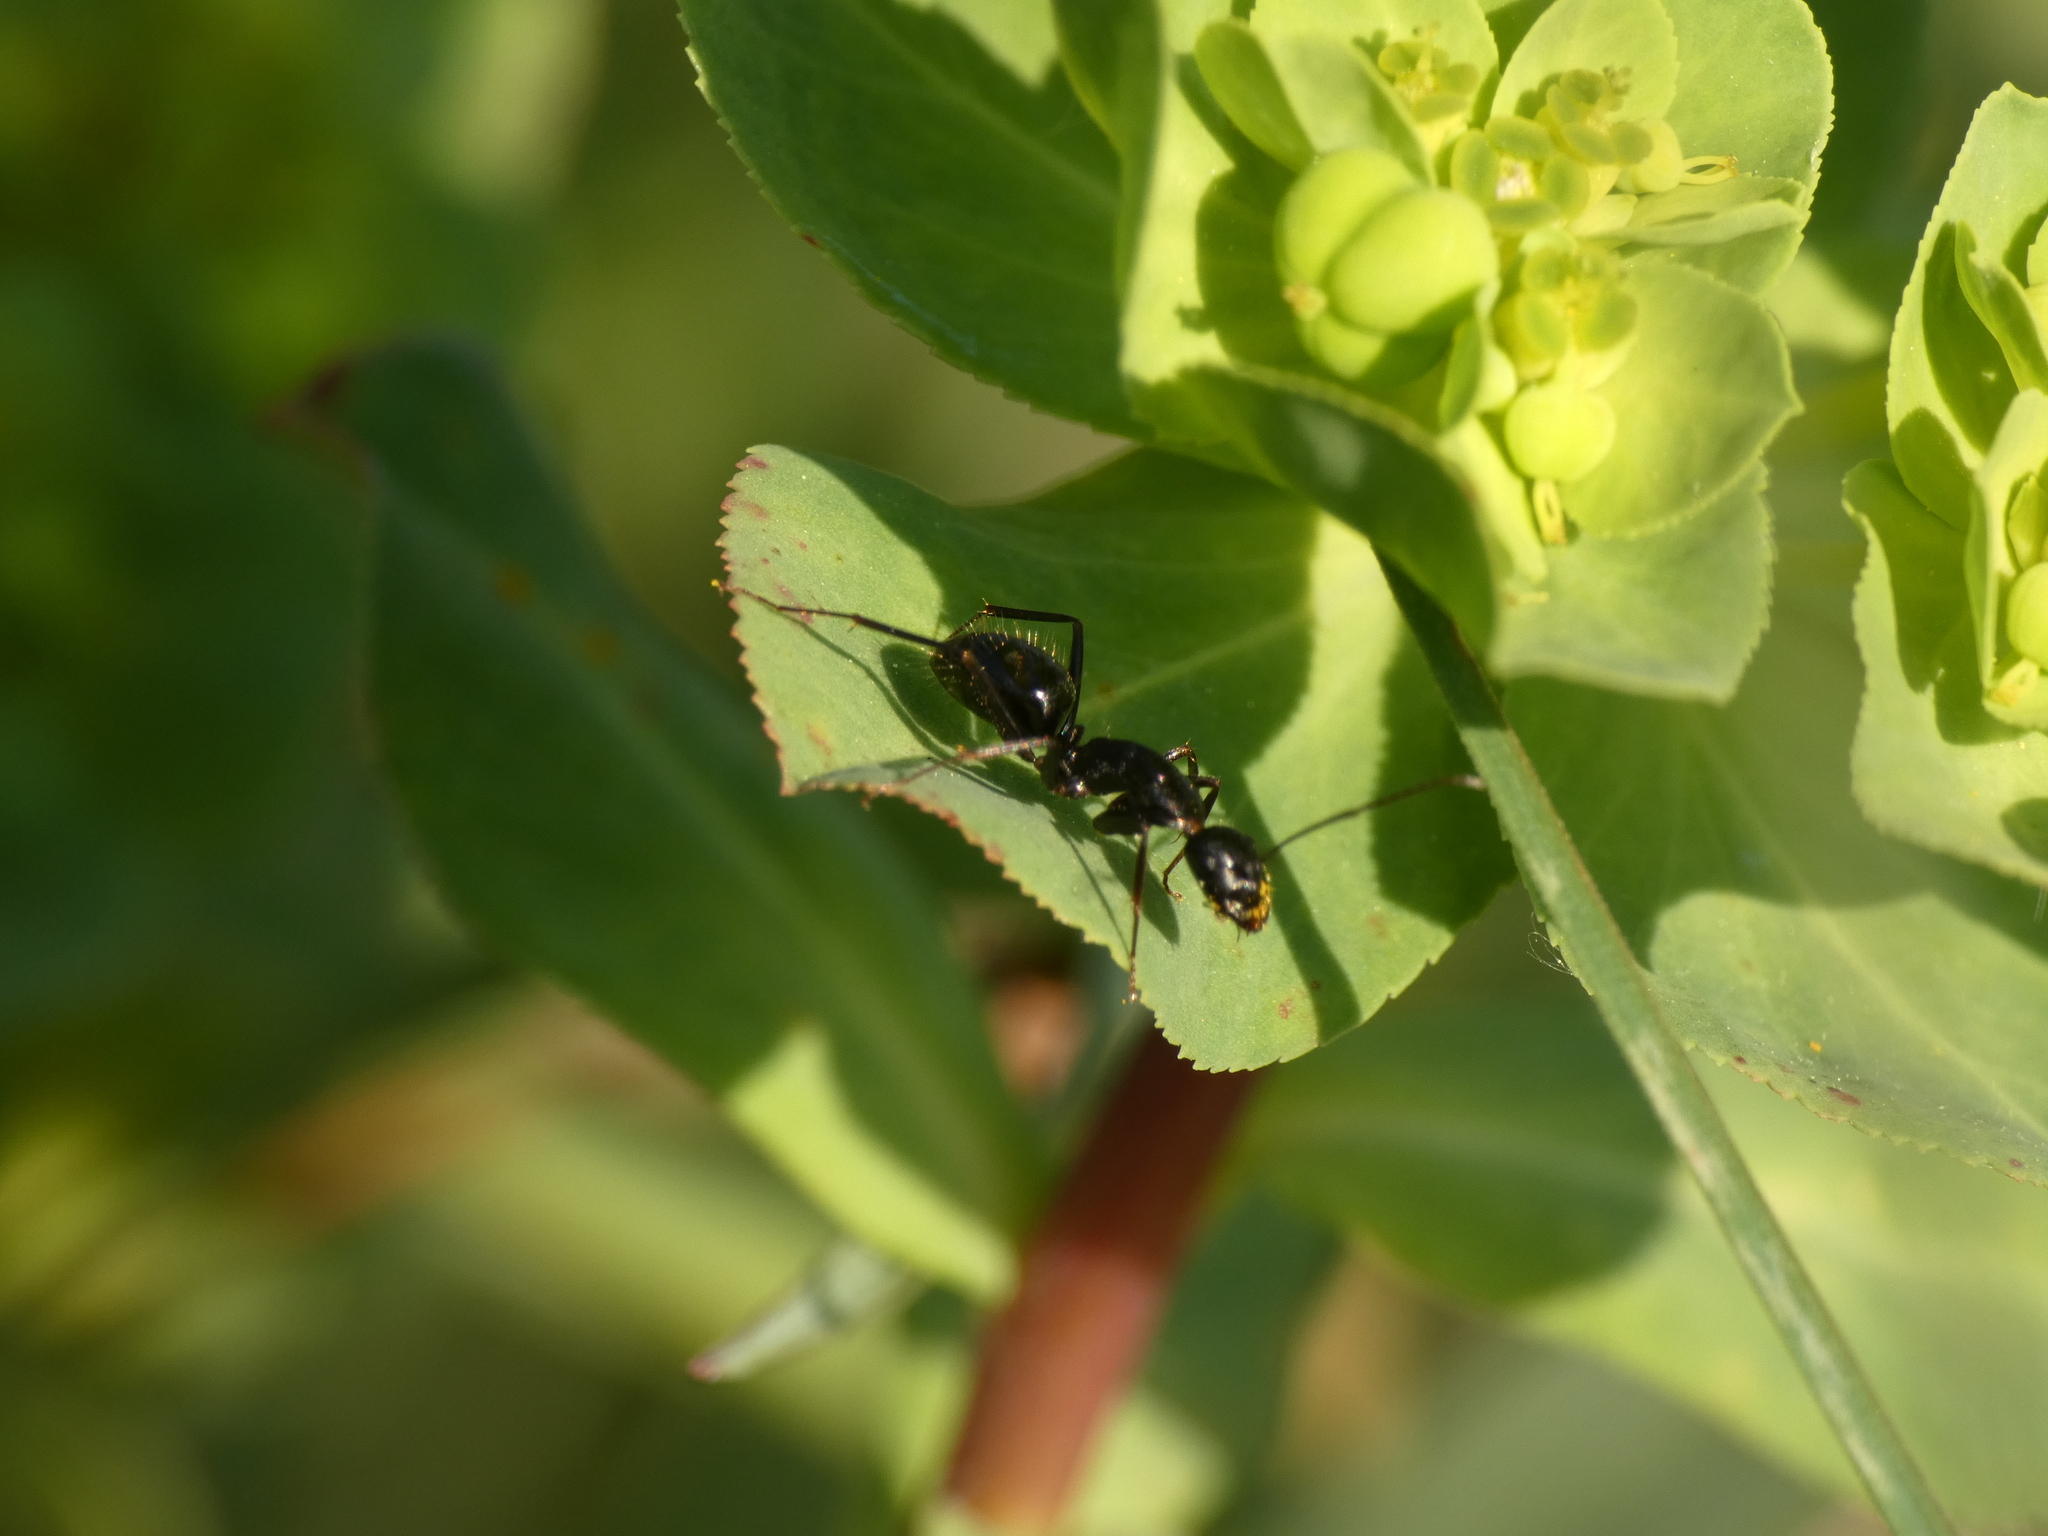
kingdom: Animalia
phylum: Arthropoda
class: Insecta
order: Hymenoptera
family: Formicidae
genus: Camponotus
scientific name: Camponotus aethiops
